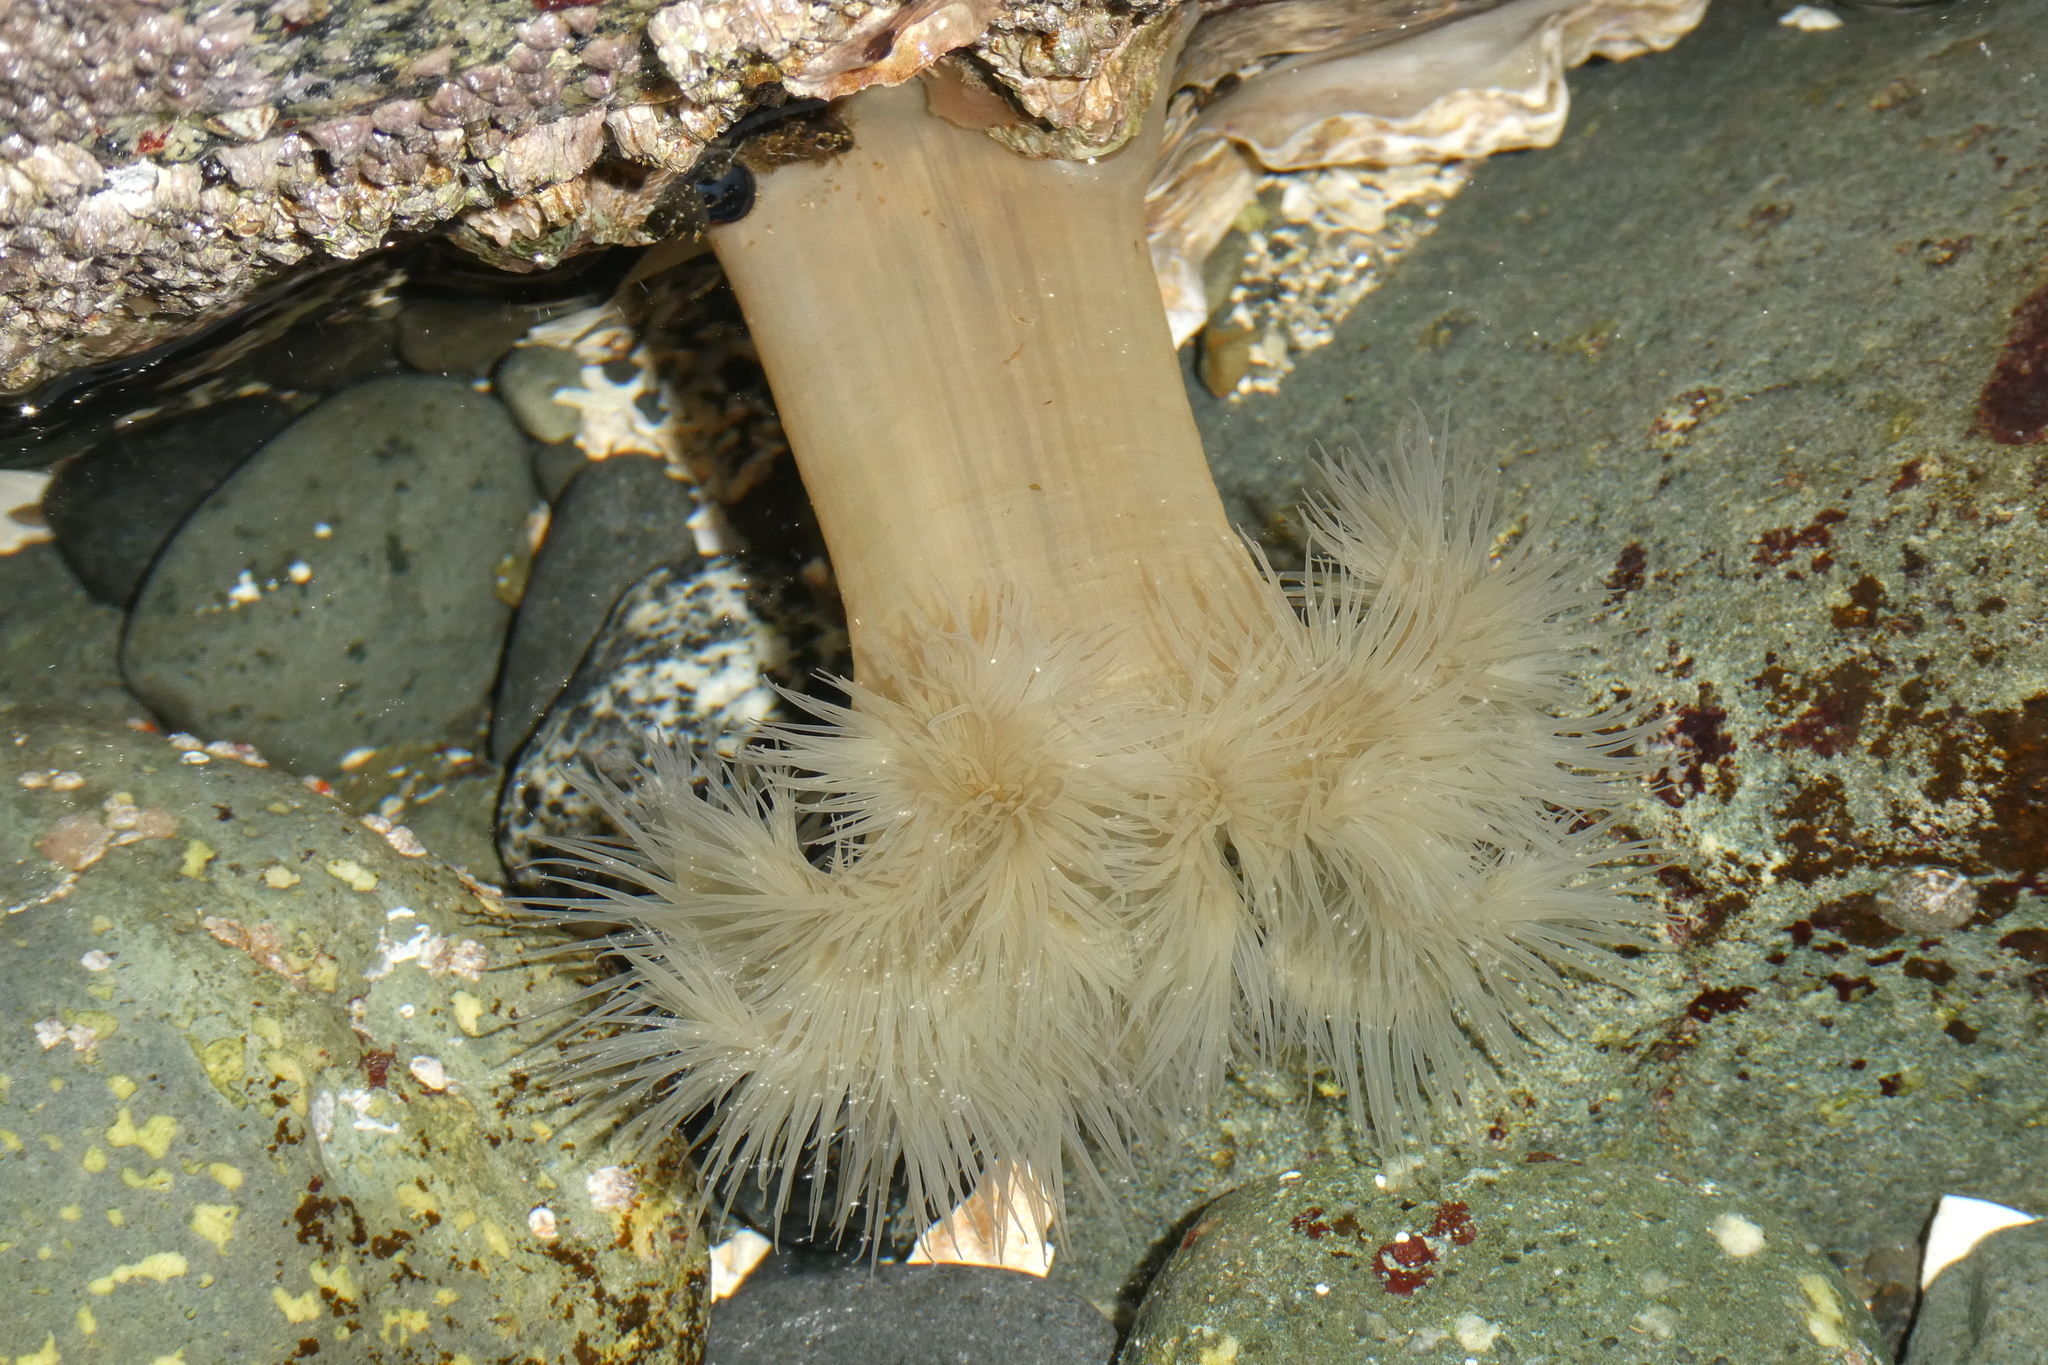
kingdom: Animalia
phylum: Cnidaria
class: Anthozoa
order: Actiniaria
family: Metridiidae
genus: Metridium
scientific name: Metridium senile
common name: Clonal plumose anemone
